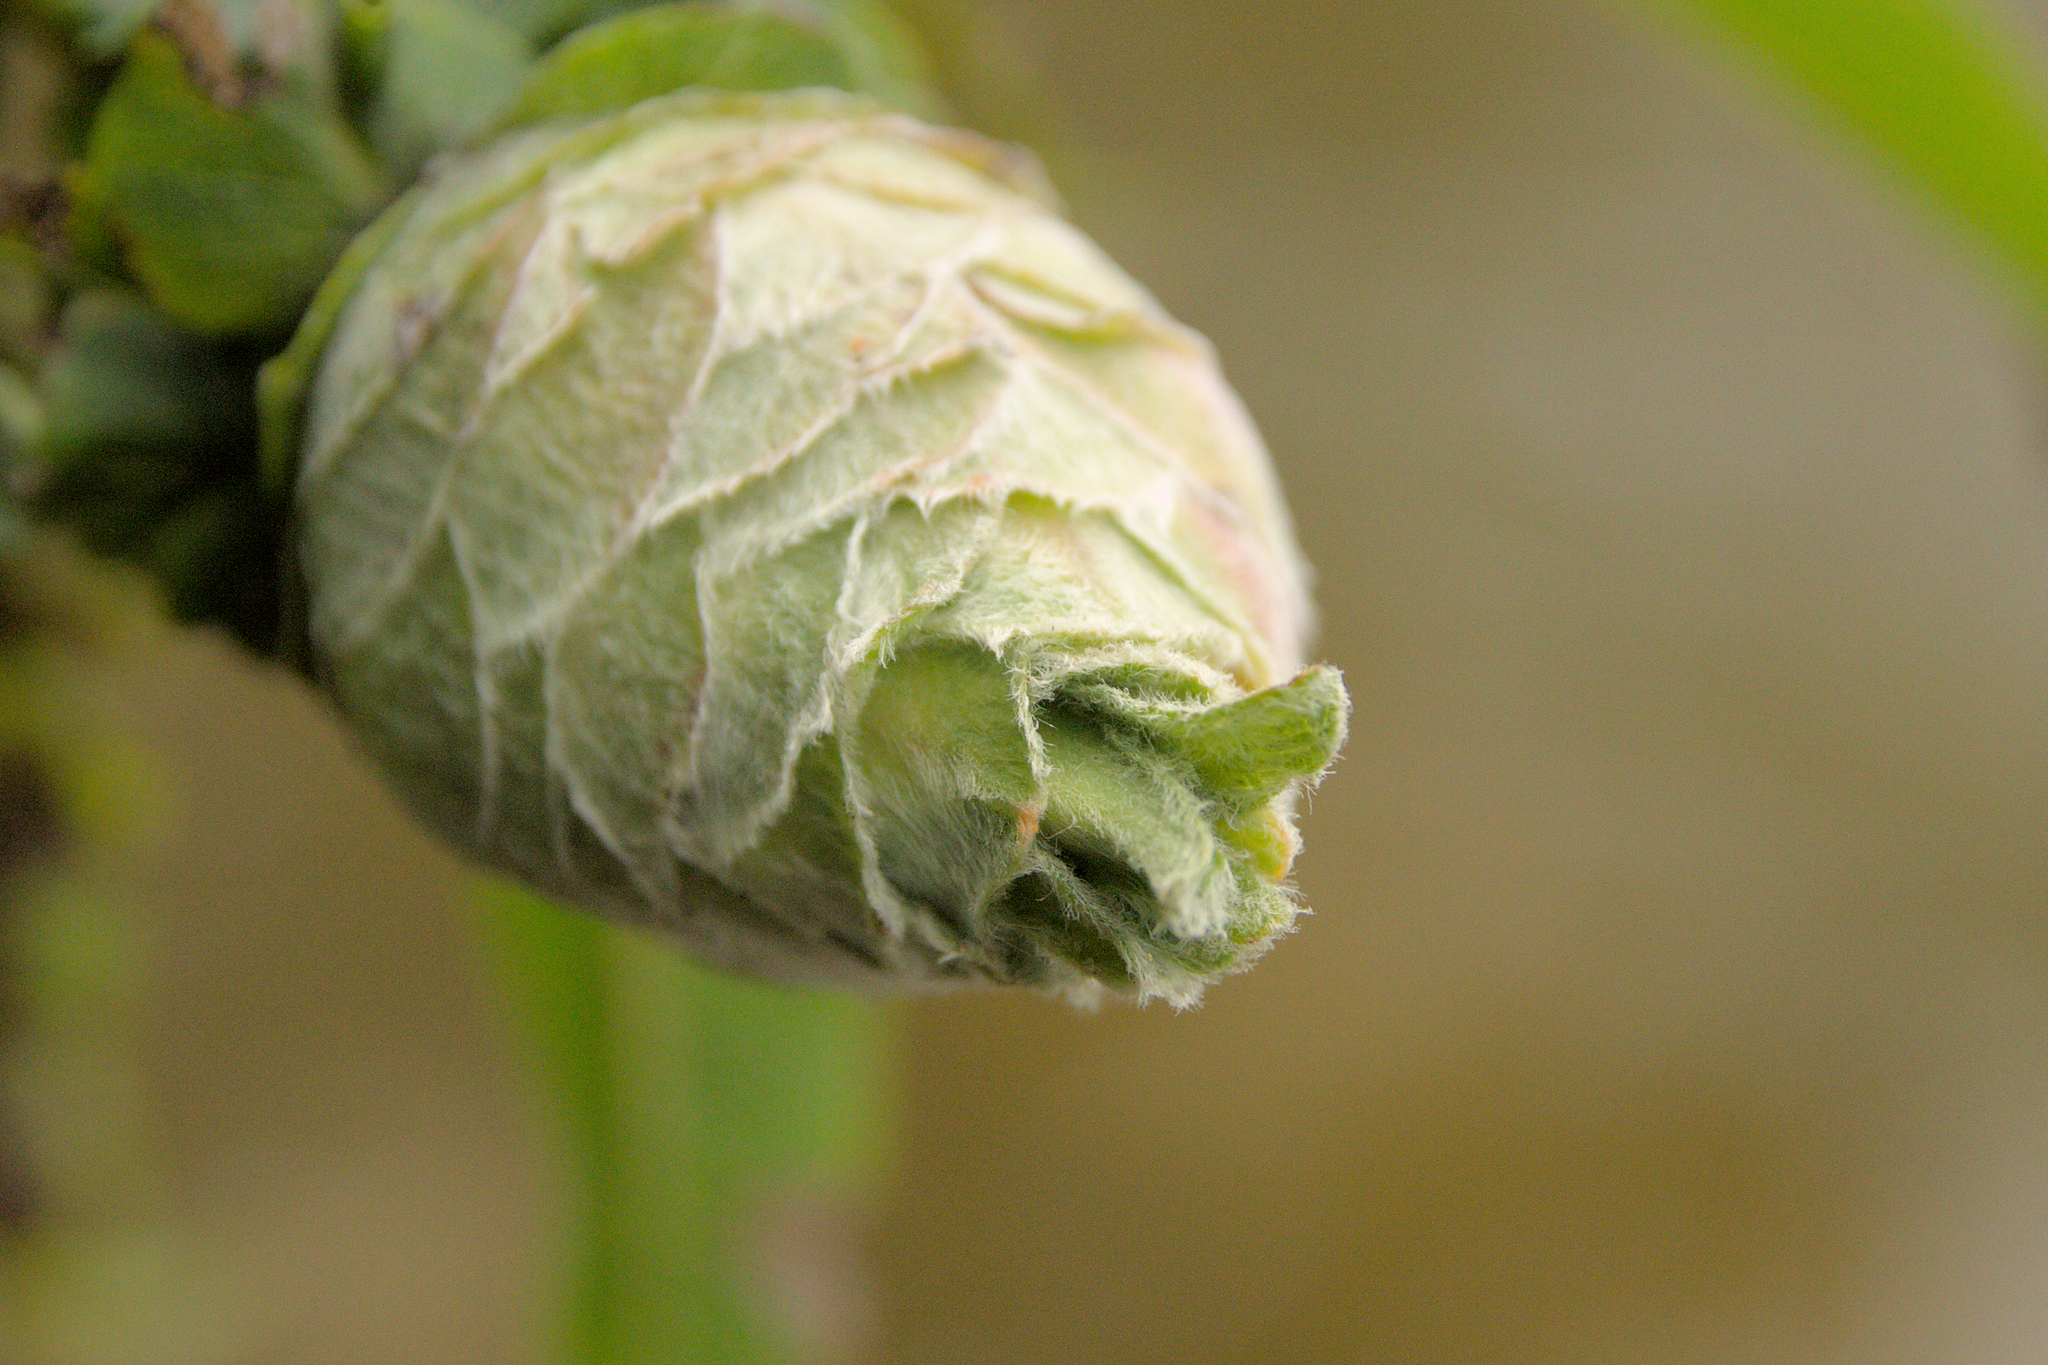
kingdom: Animalia
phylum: Arthropoda
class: Insecta
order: Diptera
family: Cecidomyiidae
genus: Rabdophaga
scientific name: Rabdophaga strobiloides
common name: Willow pinecone gall midge
